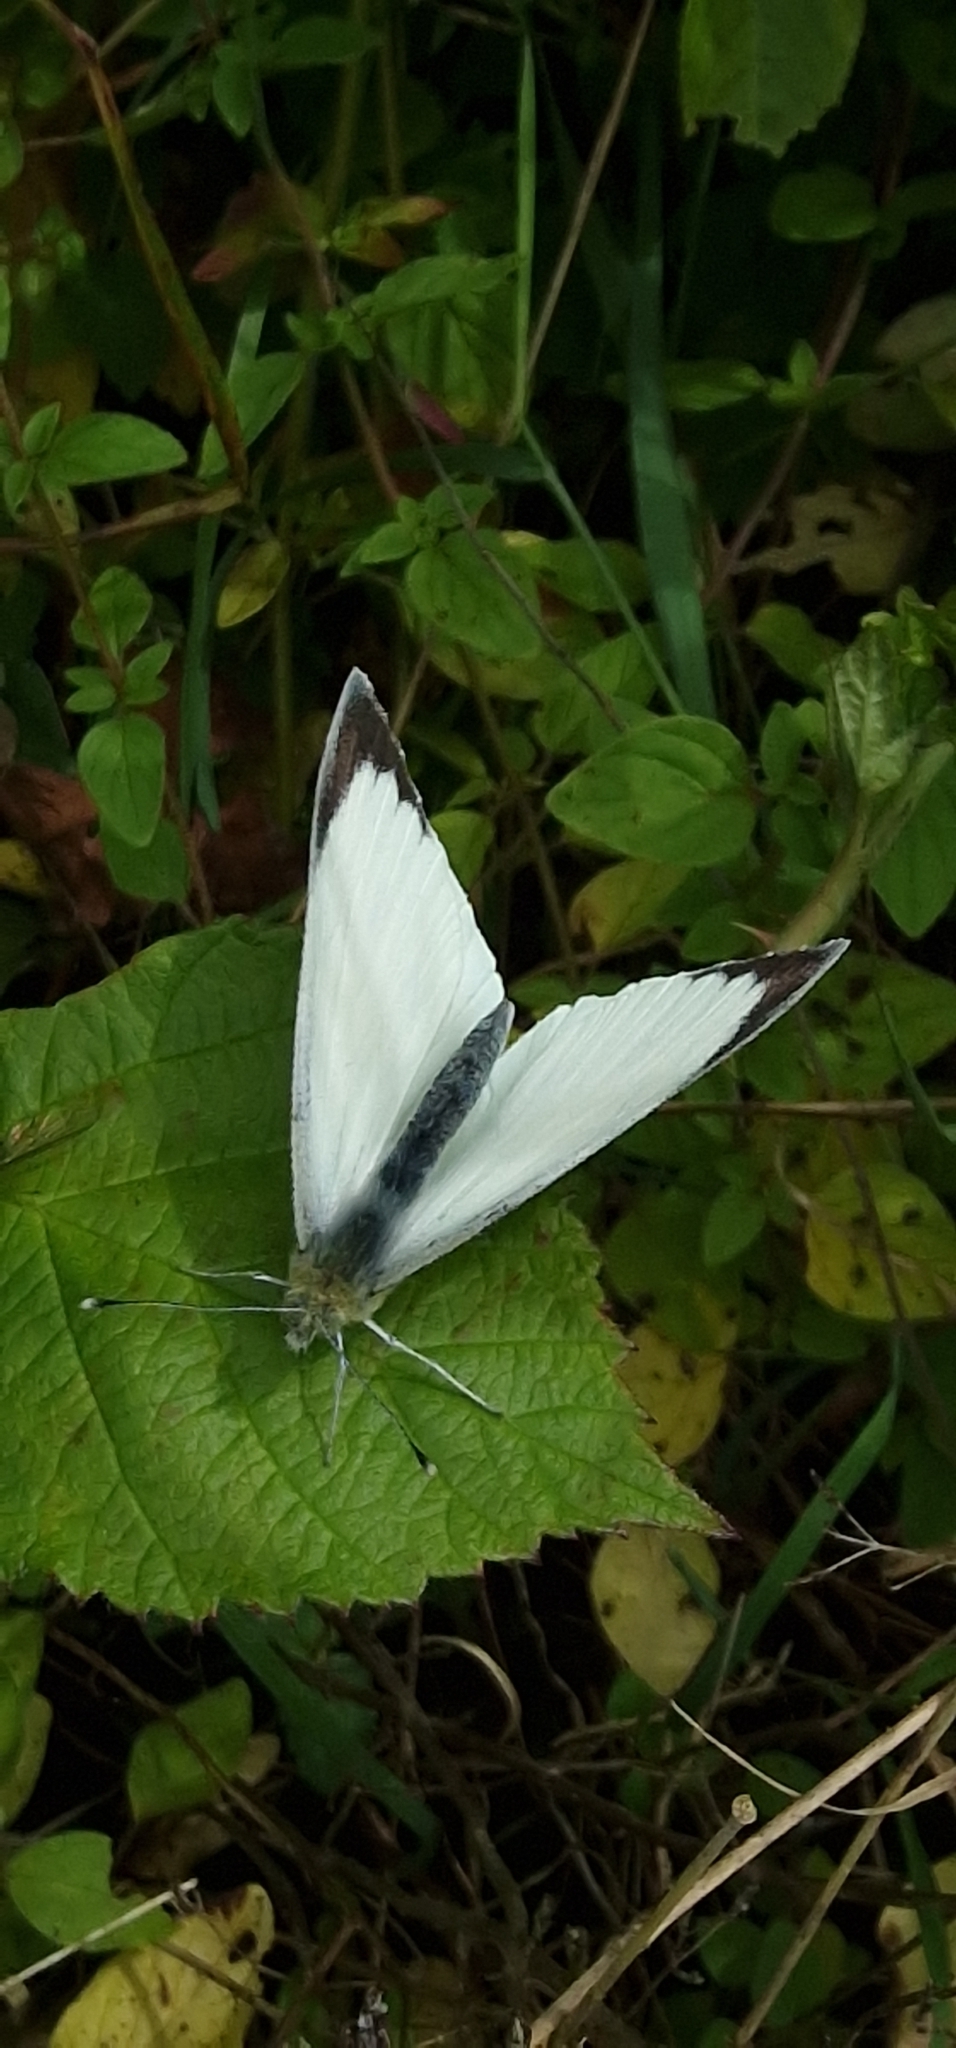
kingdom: Animalia
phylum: Arthropoda
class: Insecta
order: Lepidoptera
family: Pieridae
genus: Pieris
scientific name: Pieris brassicae
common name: Large white
